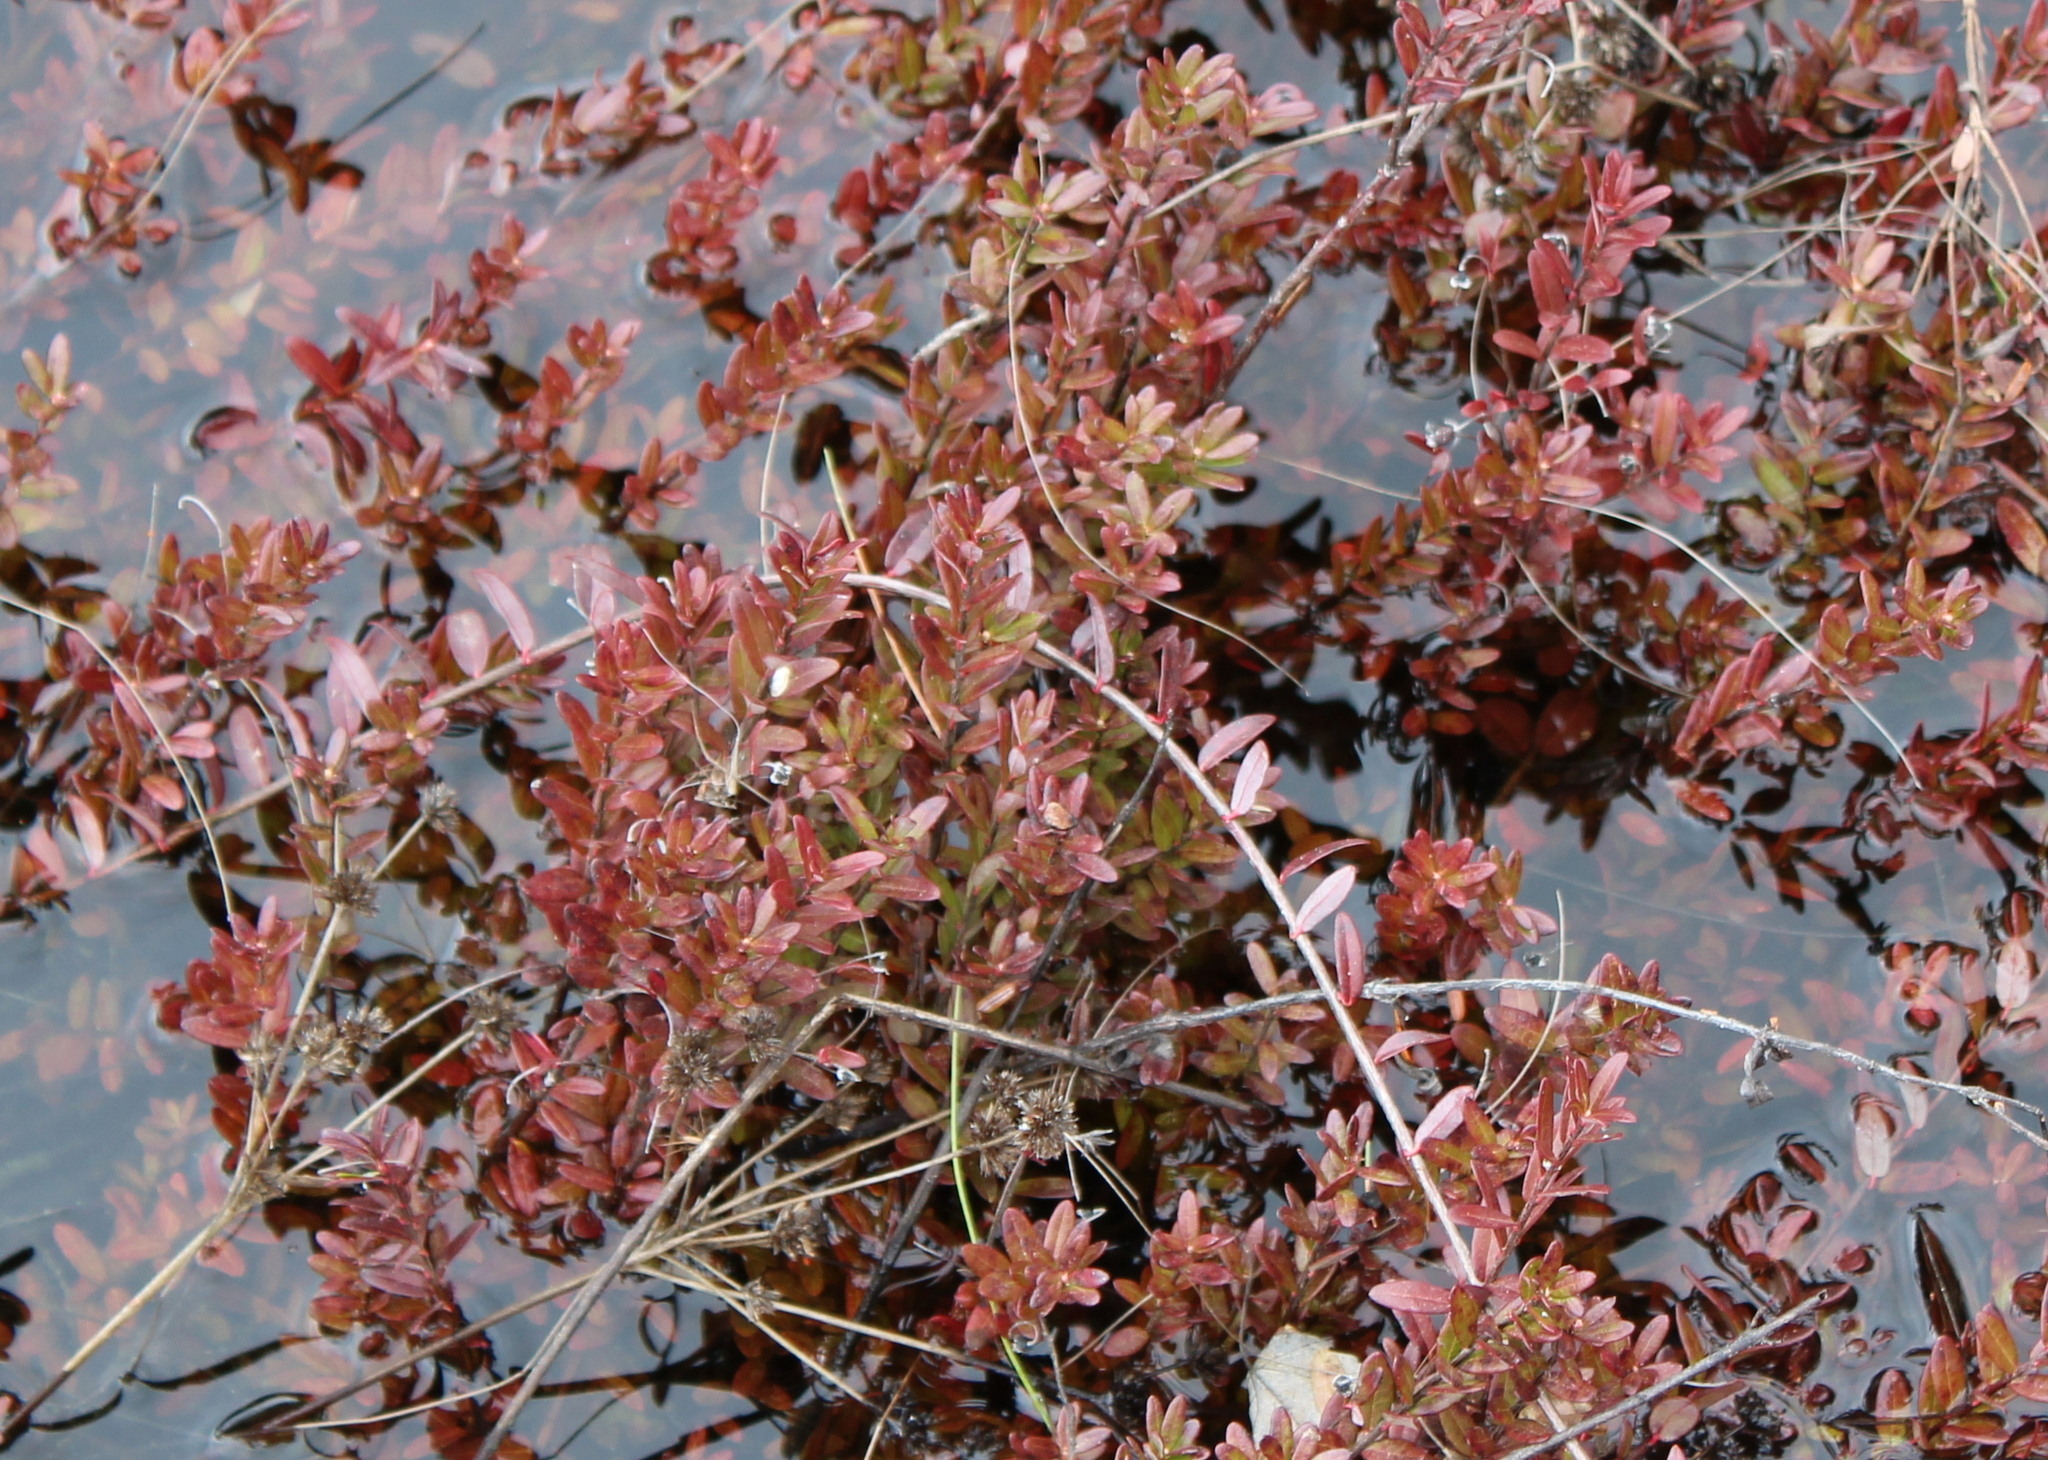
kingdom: Plantae
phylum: Tracheophyta
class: Magnoliopsida
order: Ericales
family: Ericaceae
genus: Vaccinium
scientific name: Vaccinium macrocarpon
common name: American cranberry
